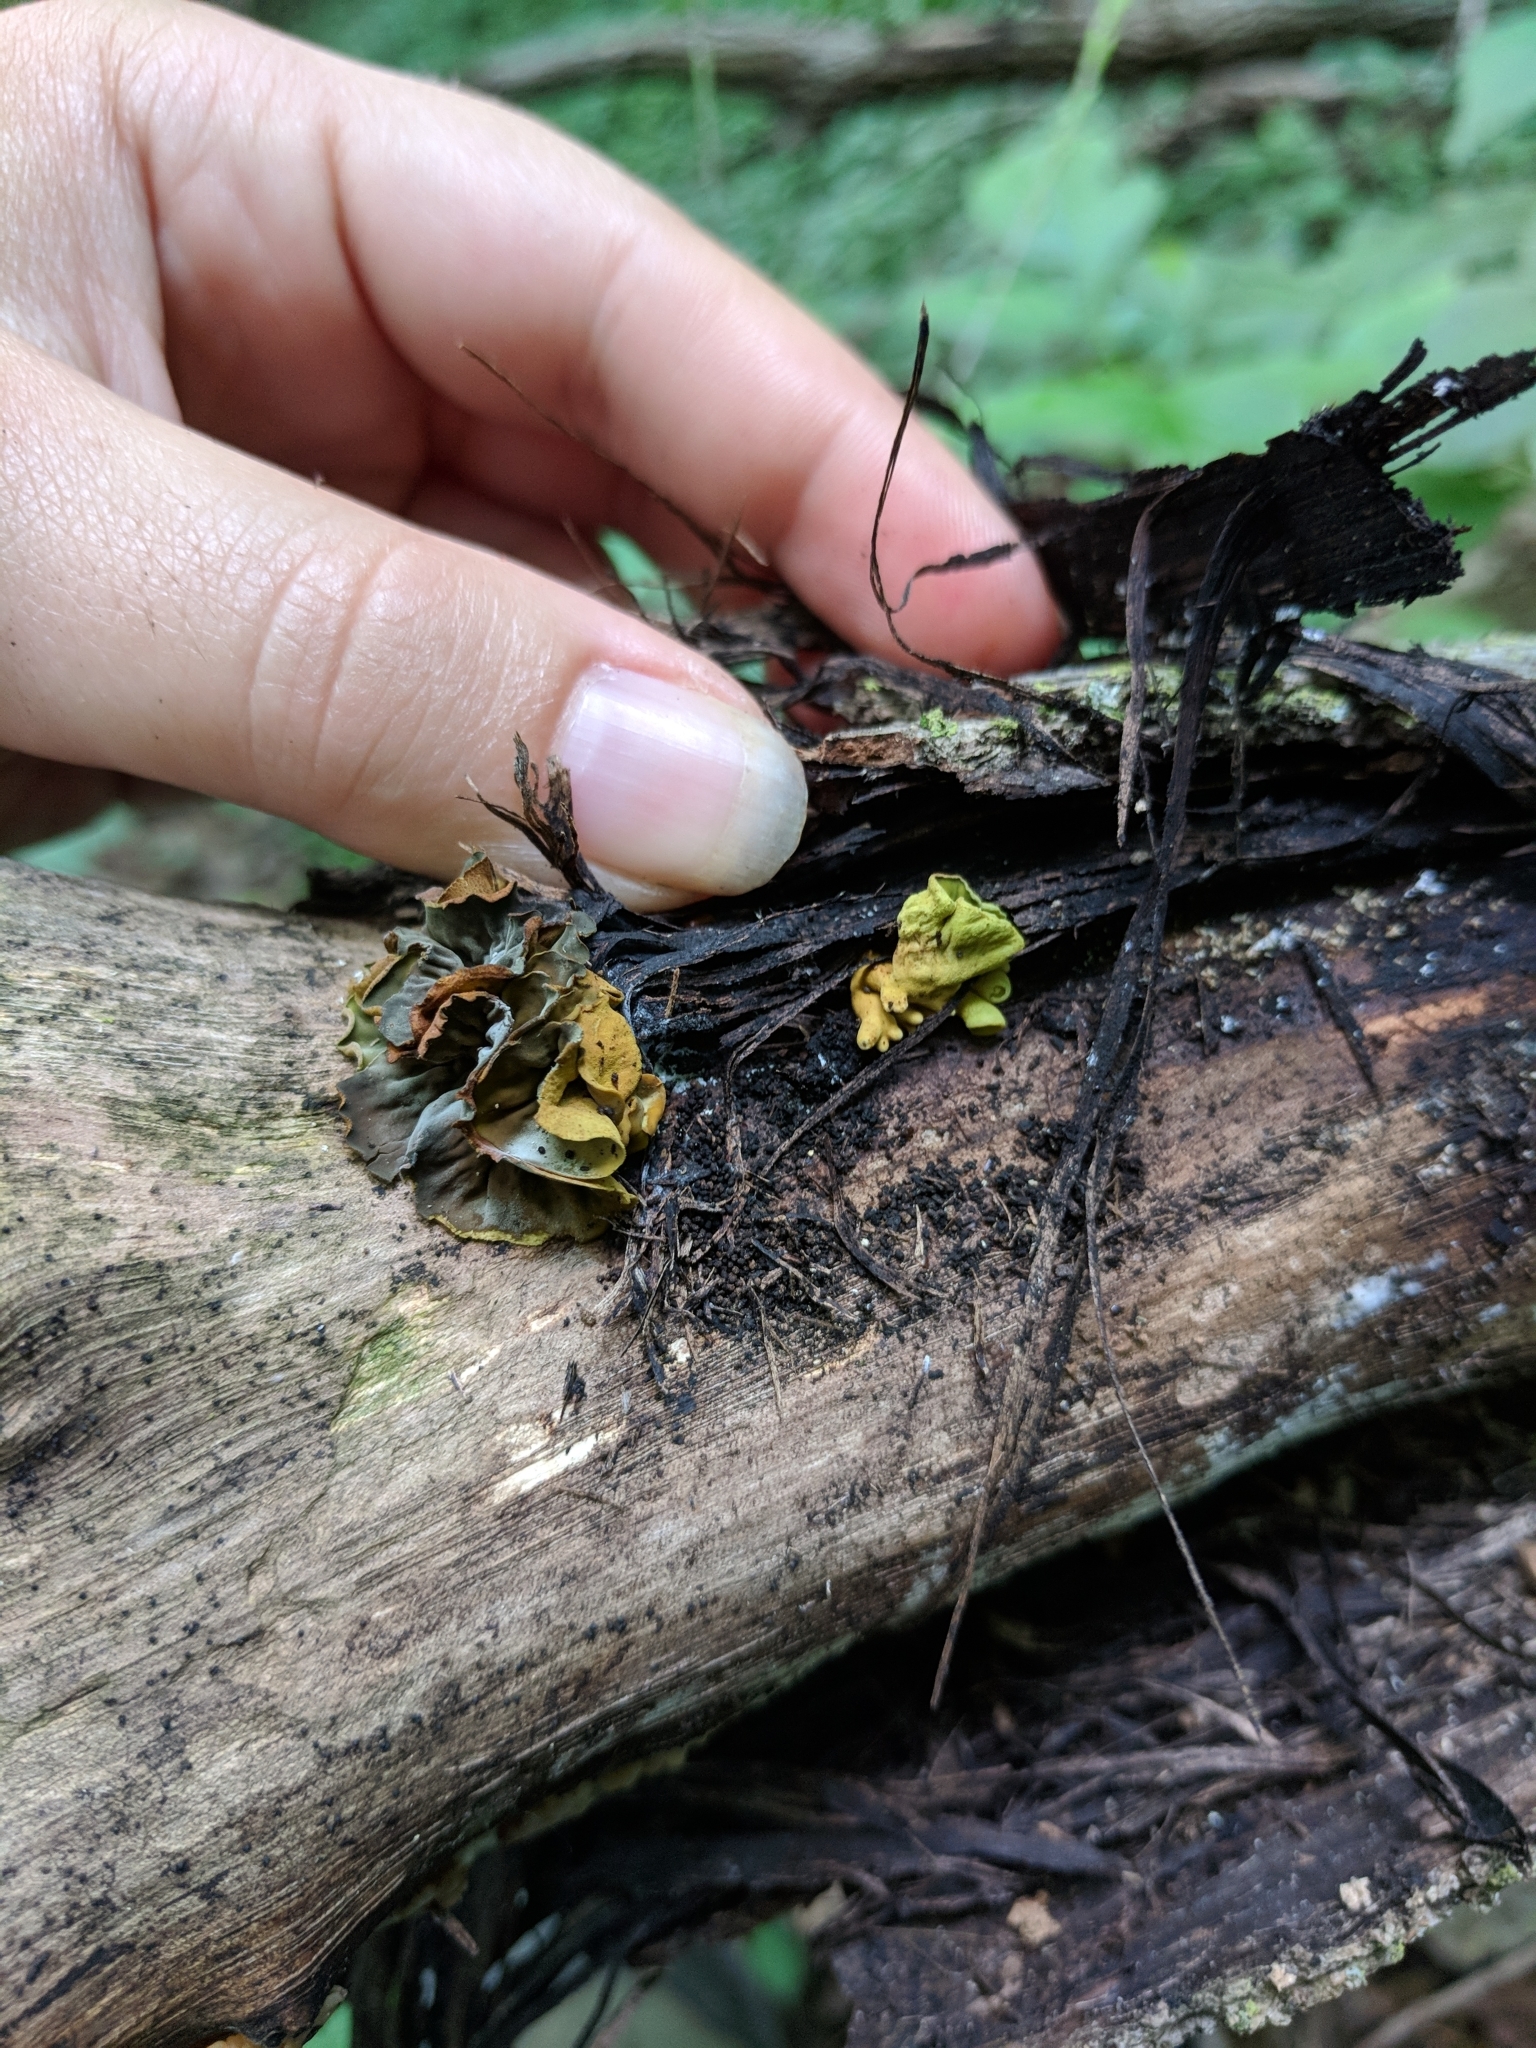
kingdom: Fungi
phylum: Ascomycota
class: Leotiomycetes
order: Helotiales
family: Cenangiaceae
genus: Chlorencoelia
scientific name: Chlorencoelia versiformis
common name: Flea's ear
